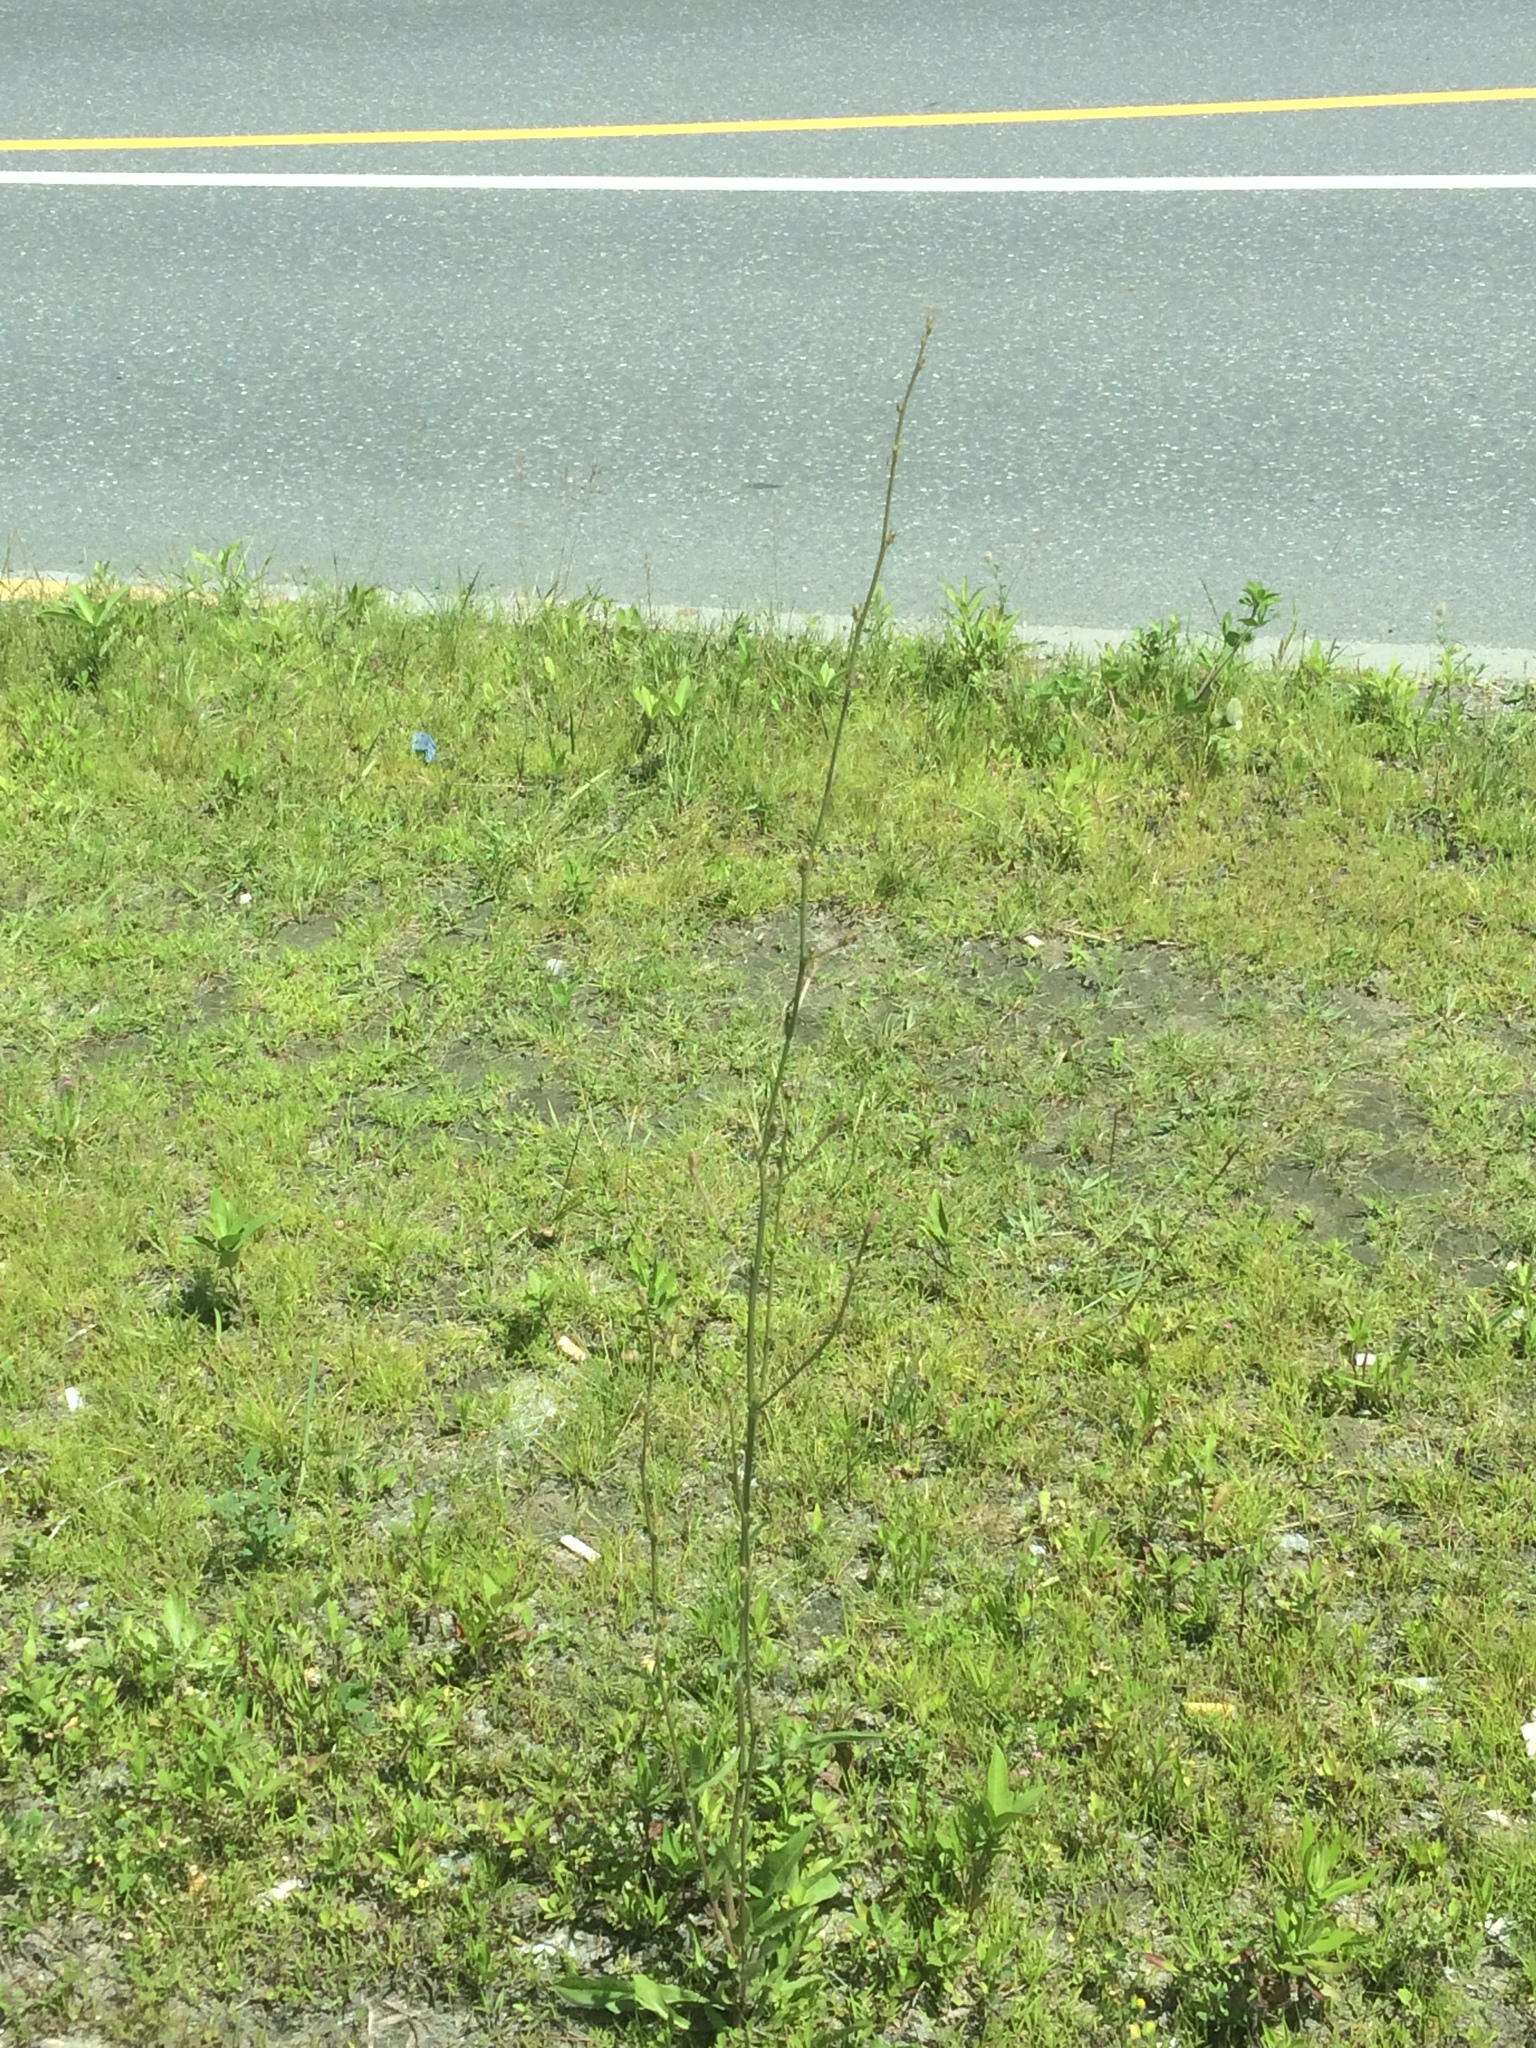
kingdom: Plantae
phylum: Tracheophyta
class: Magnoliopsida
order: Asterales
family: Asteraceae
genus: Cichorium
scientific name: Cichorium intybus
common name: Chicory
